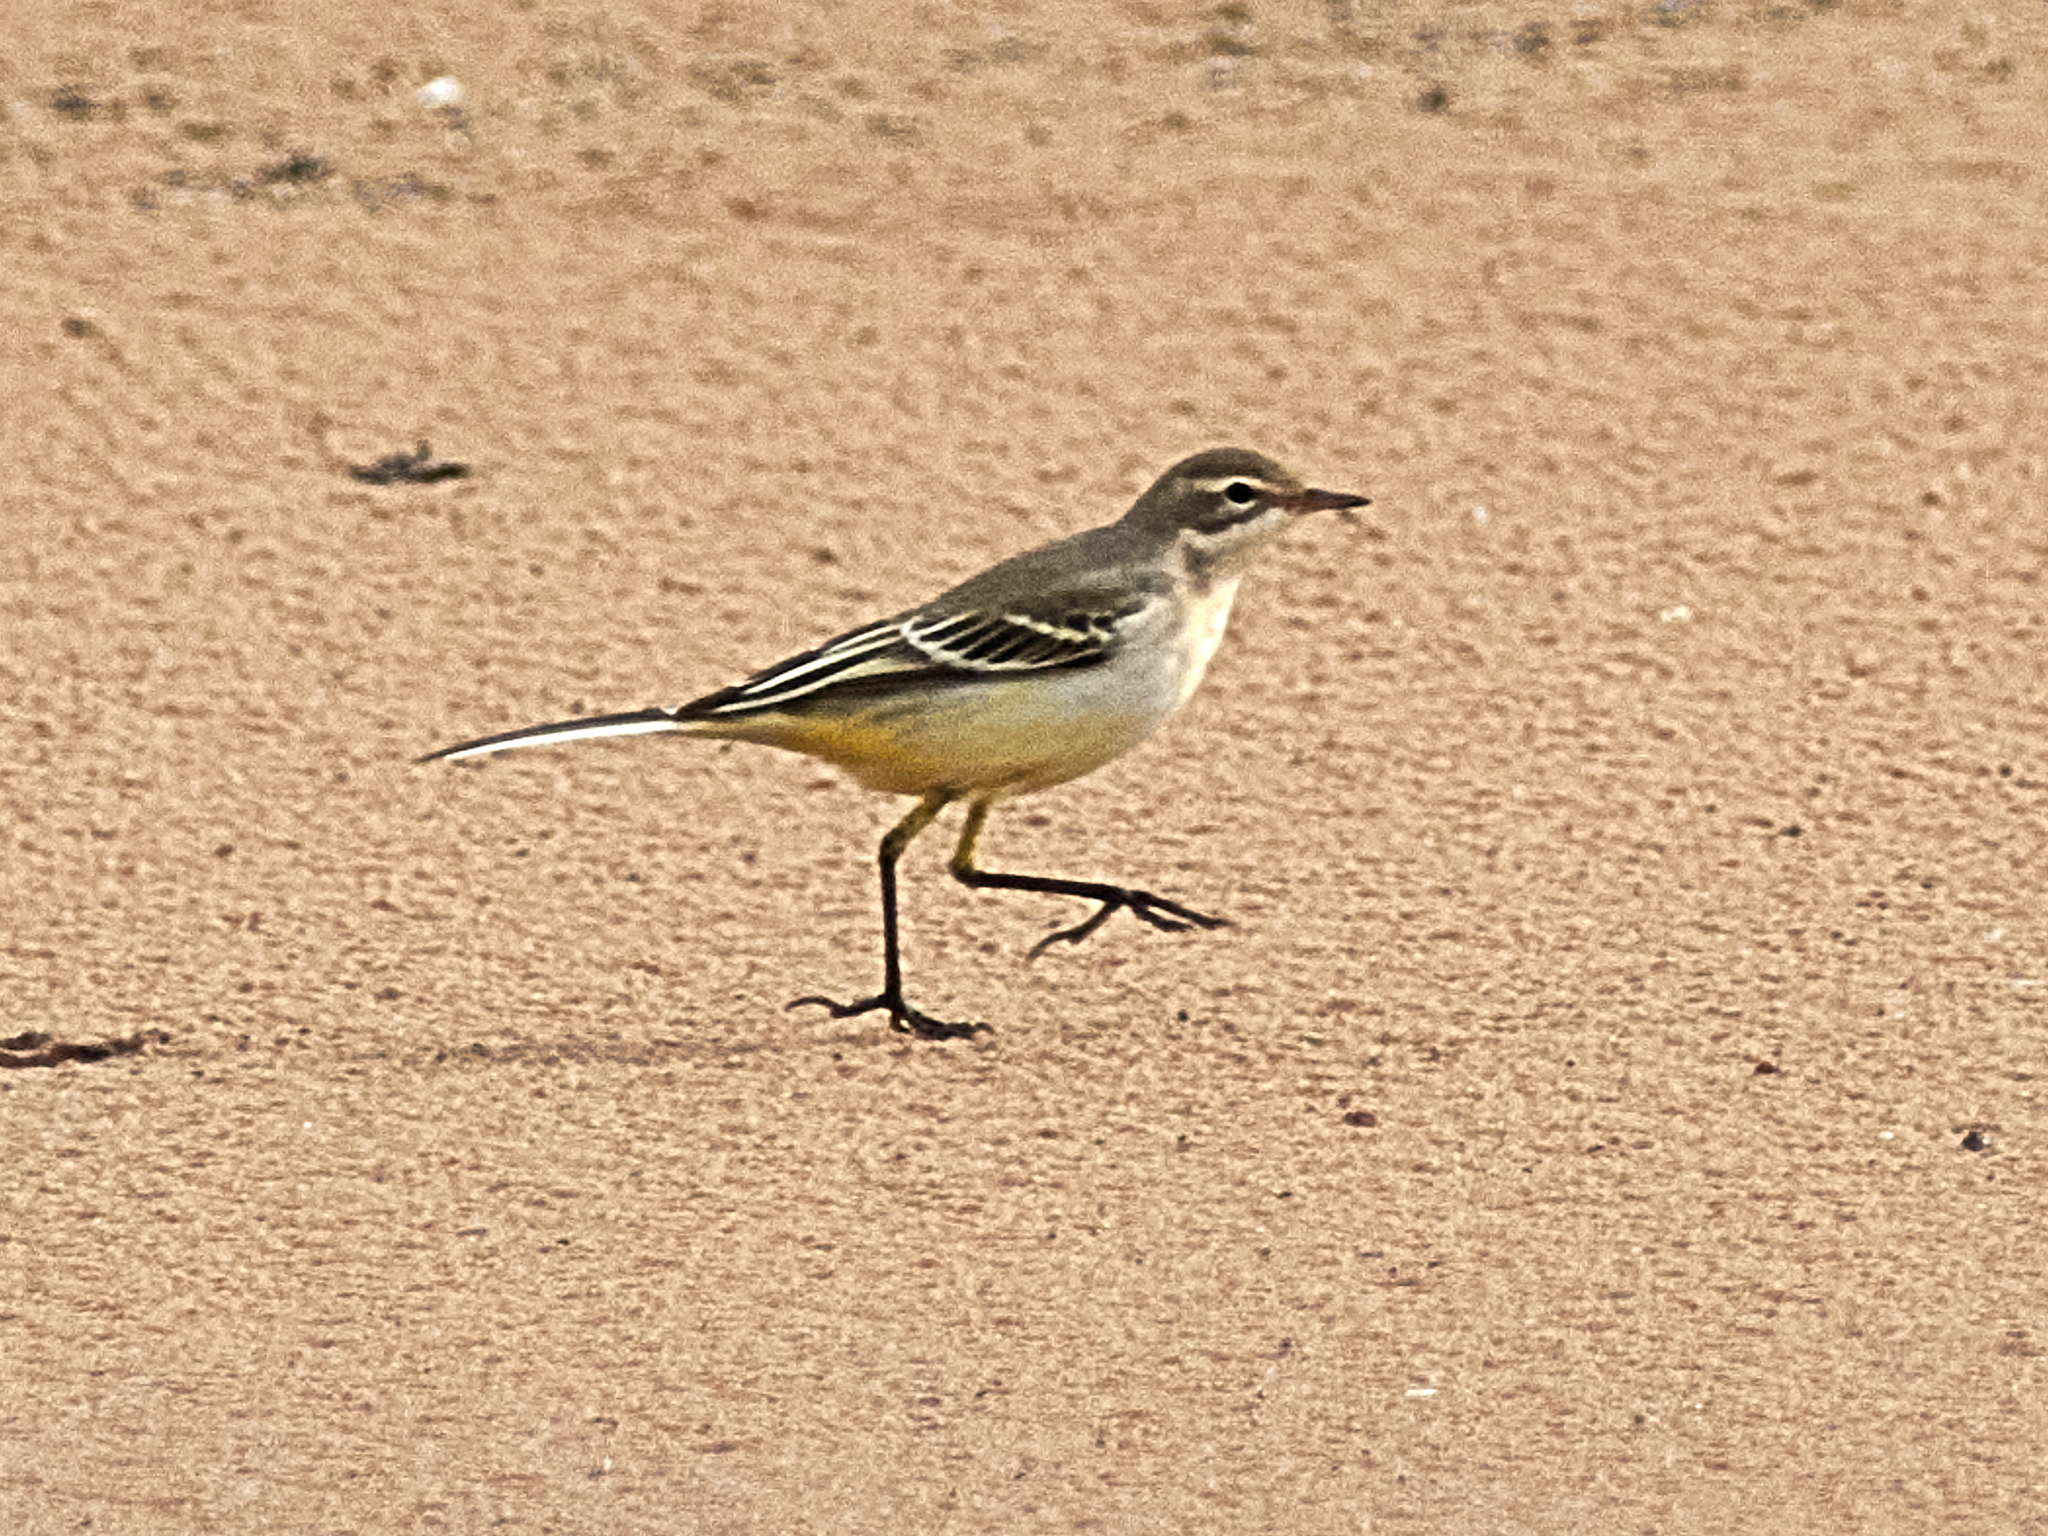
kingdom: Animalia
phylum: Chordata
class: Aves
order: Passeriformes
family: Motacillidae
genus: Motacilla
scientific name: Motacilla flava
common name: Western yellow wagtail
